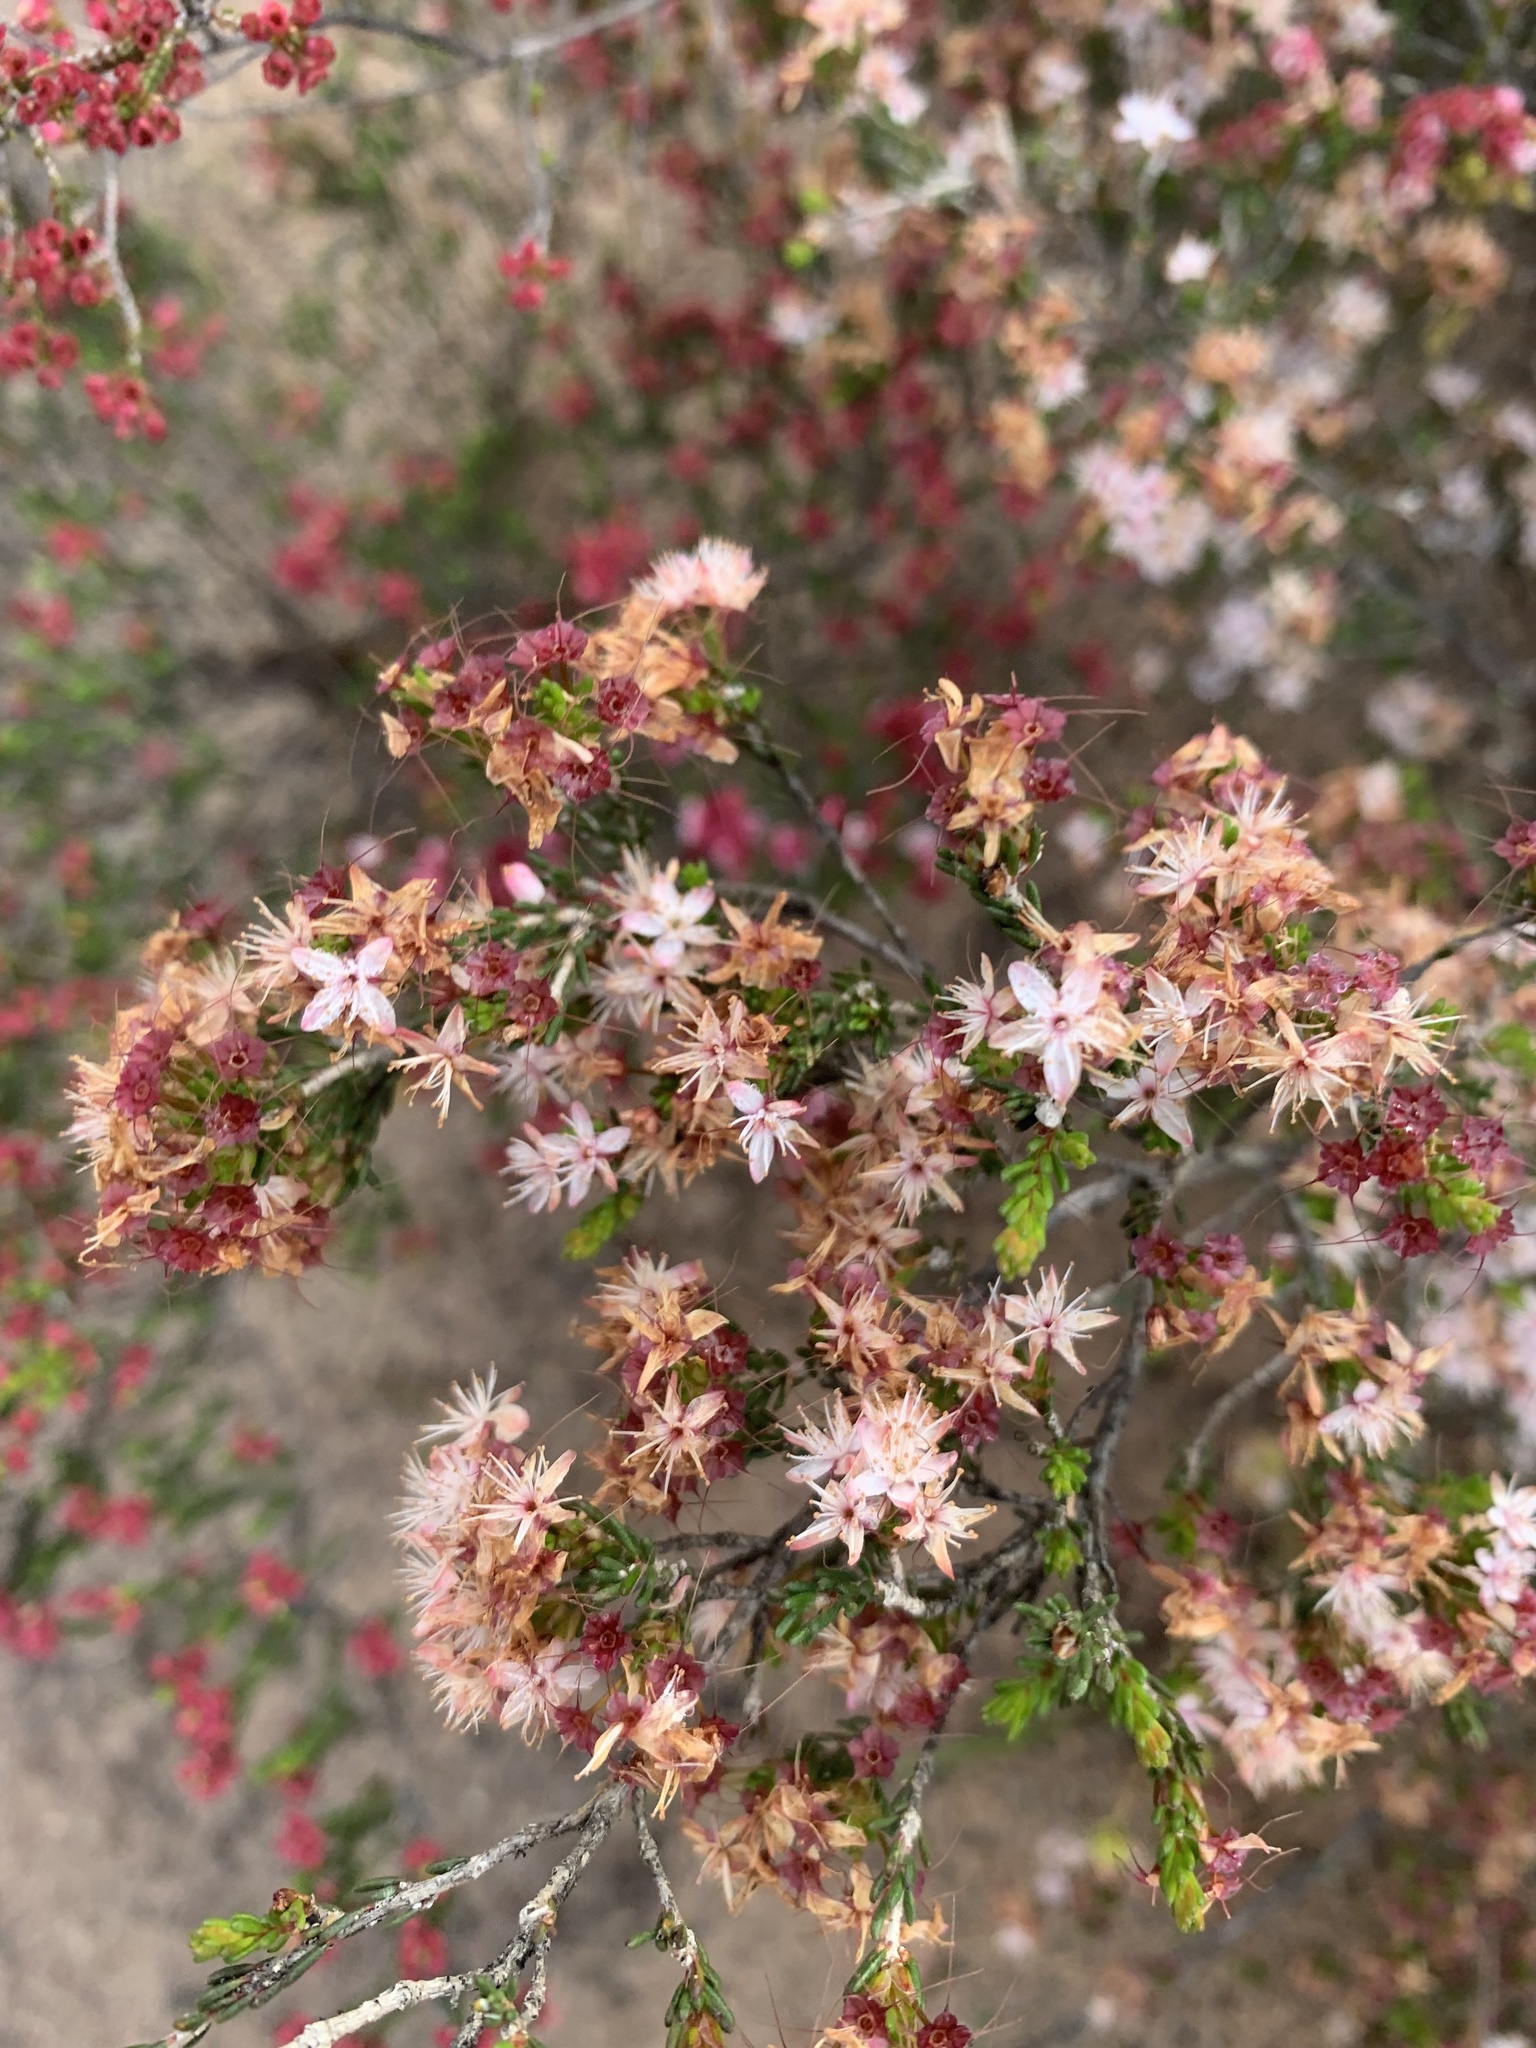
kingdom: Plantae
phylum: Tracheophyta
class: Magnoliopsida
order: Myrtales
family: Myrtaceae
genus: Calytrix
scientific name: Calytrix tetragona
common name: Common fringe myrtle
